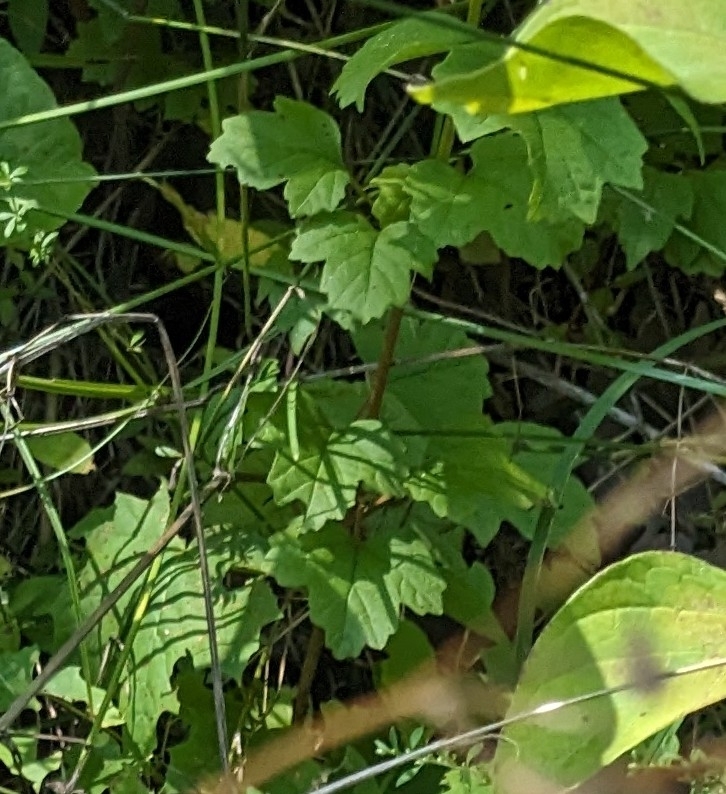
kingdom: Plantae
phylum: Tracheophyta
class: Magnoliopsida
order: Dipsacales
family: Viburnaceae
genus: Viburnum
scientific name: Viburnum opulus
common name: Guelder-rose
